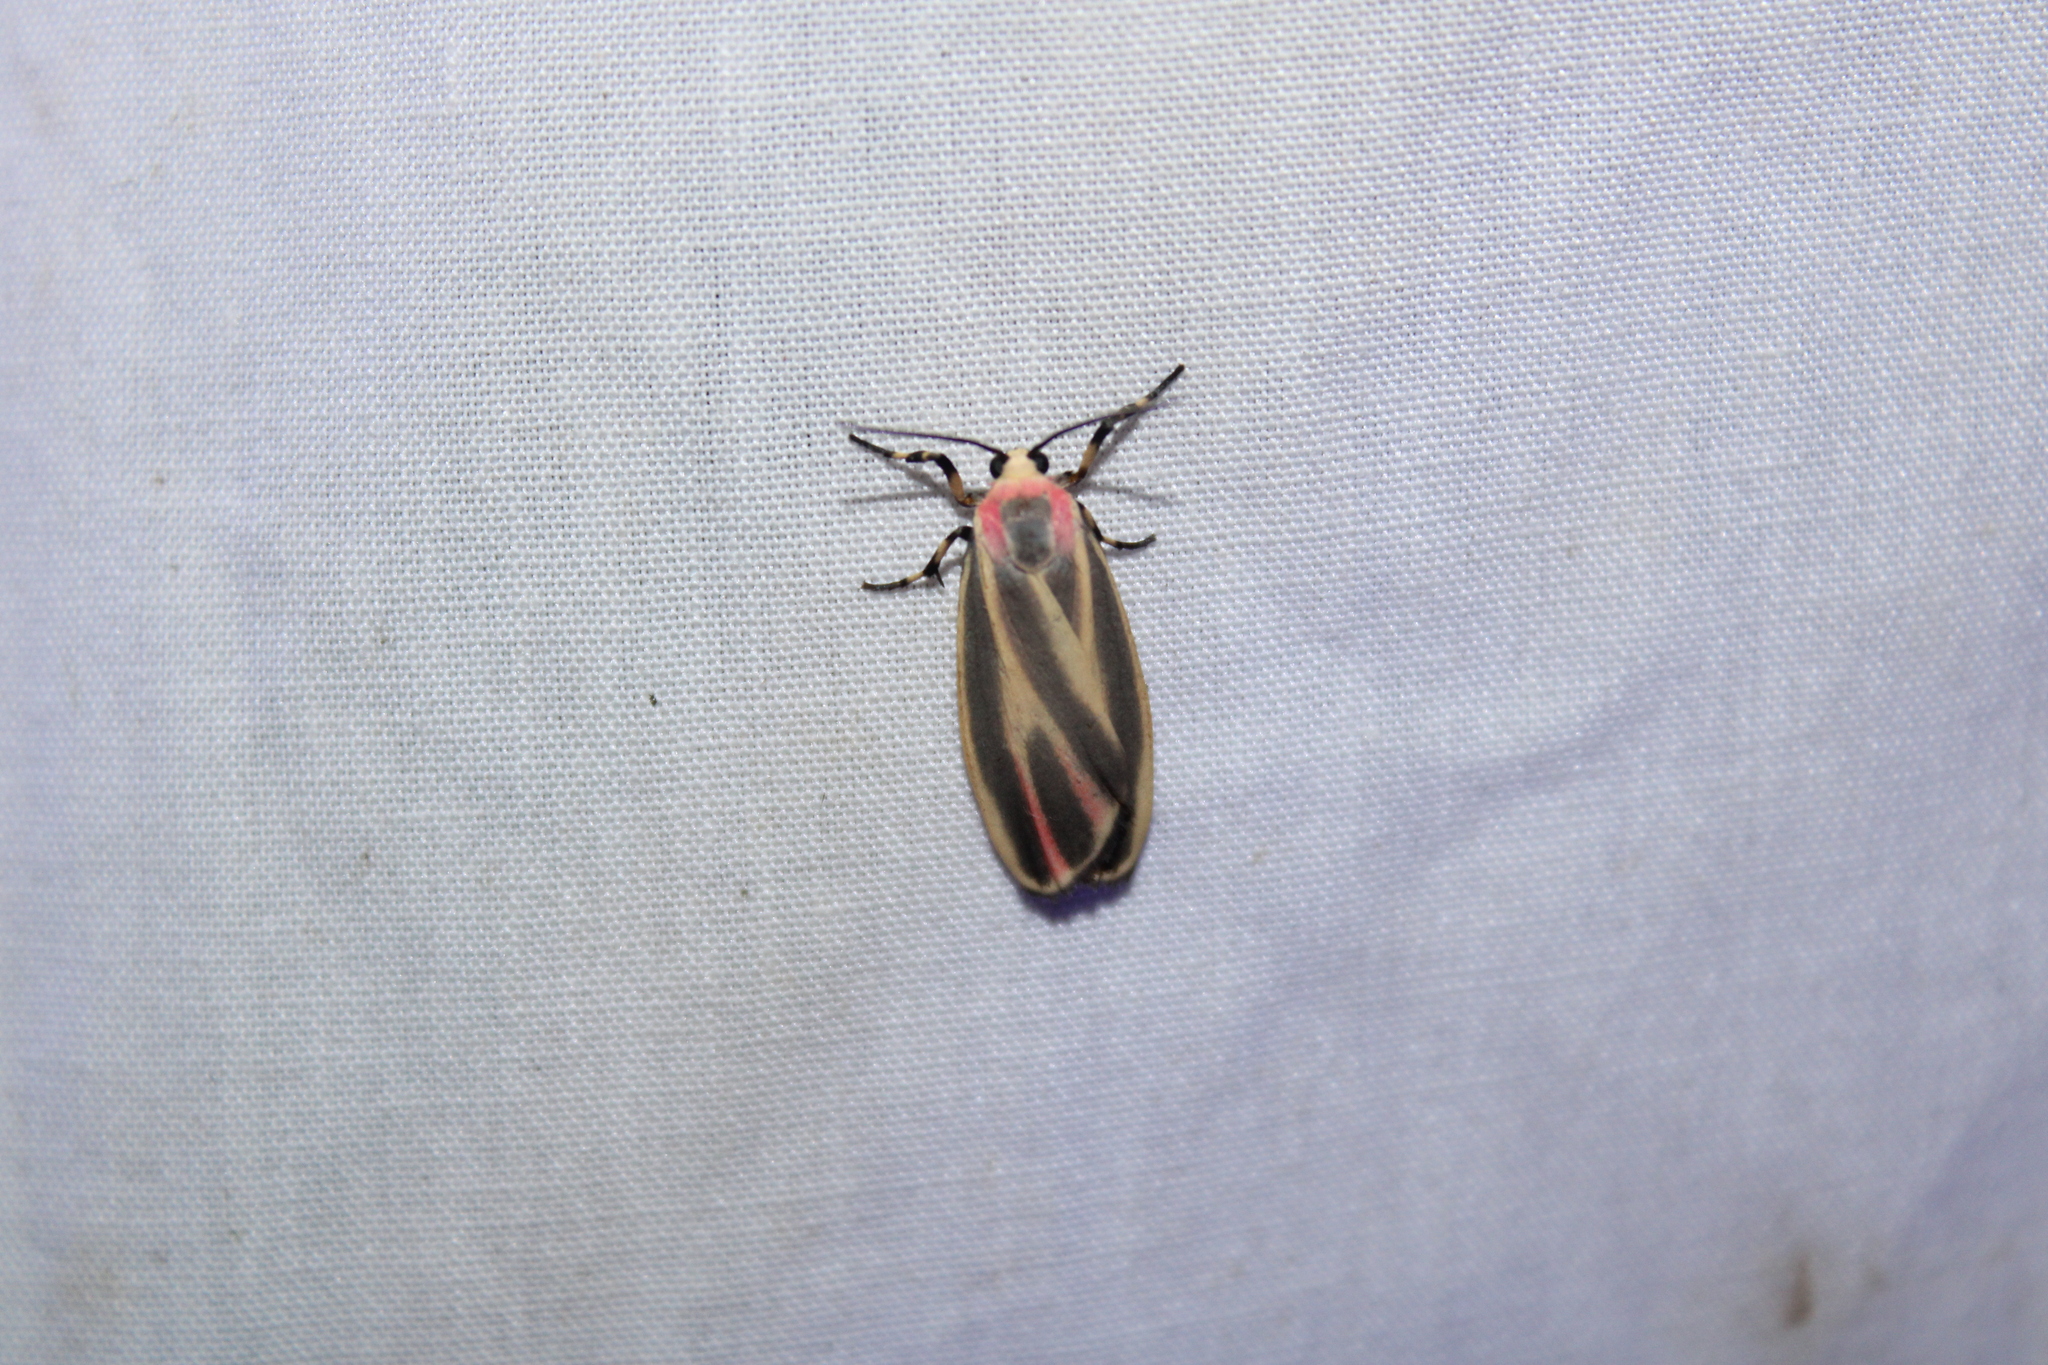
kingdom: Animalia
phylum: Arthropoda
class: Insecta
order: Lepidoptera
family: Erebidae
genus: Hypoprepia
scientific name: Hypoprepia fucosa
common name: Painted lichen moth
